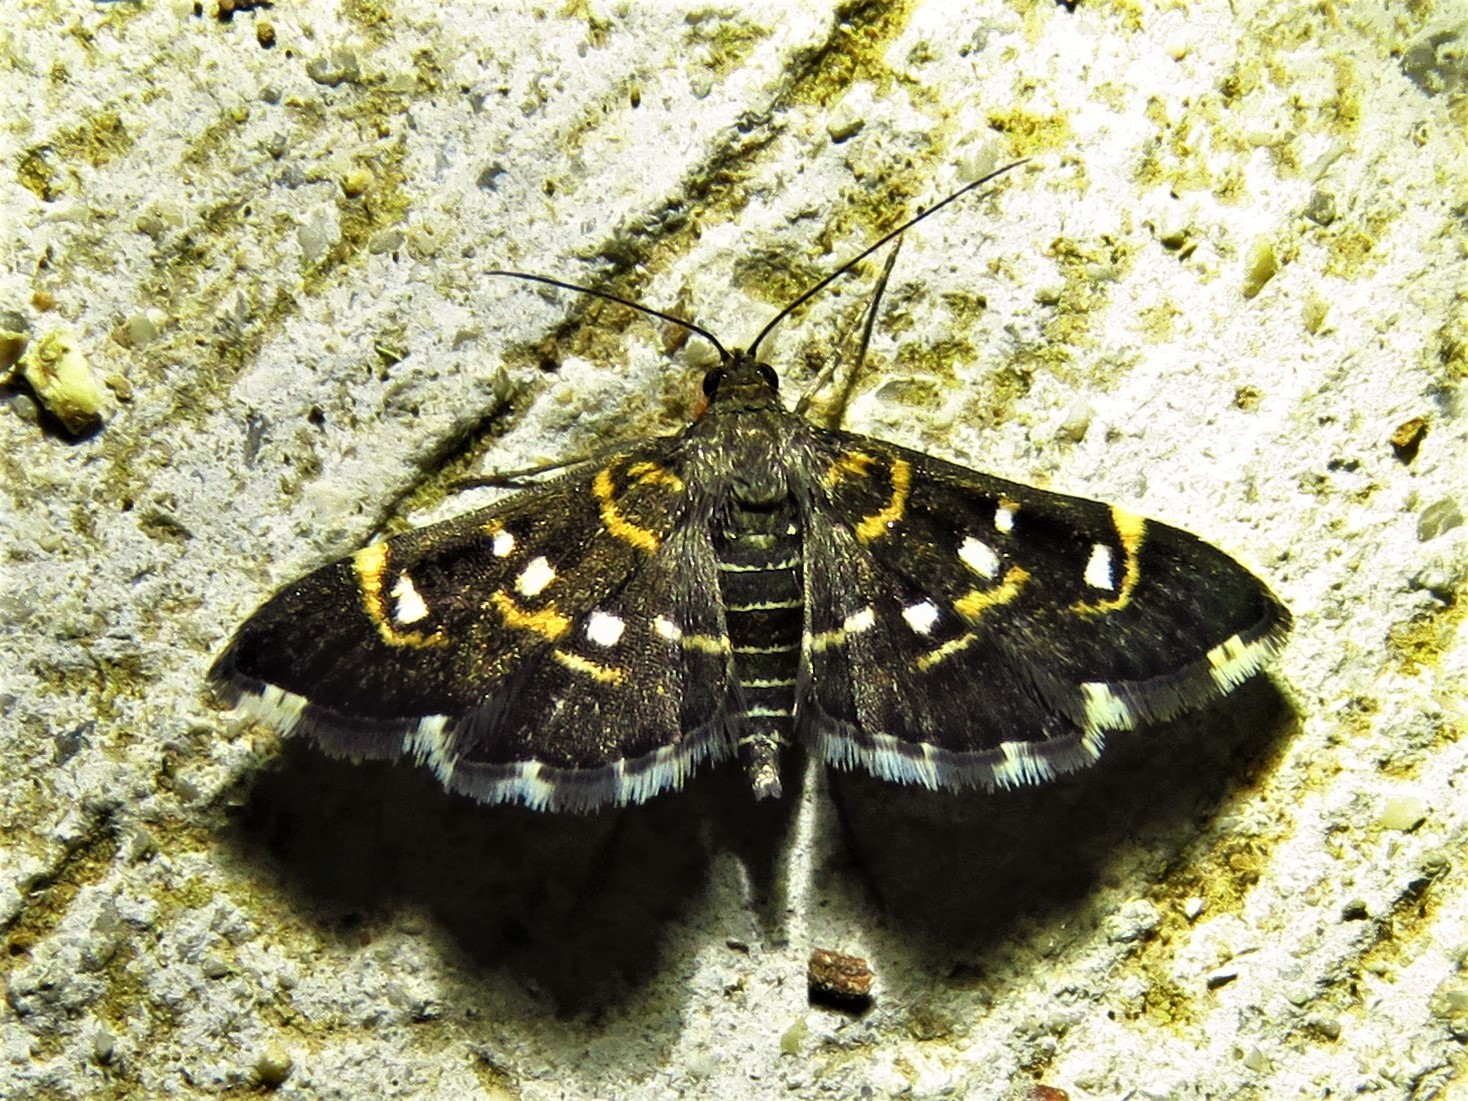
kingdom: Animalia
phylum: Arthropoda
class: Insecta
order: Lepidoptera
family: Crambidae
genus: Diathrausta
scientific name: Diathrausta harlequinalis
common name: Harlequin webworm moth
